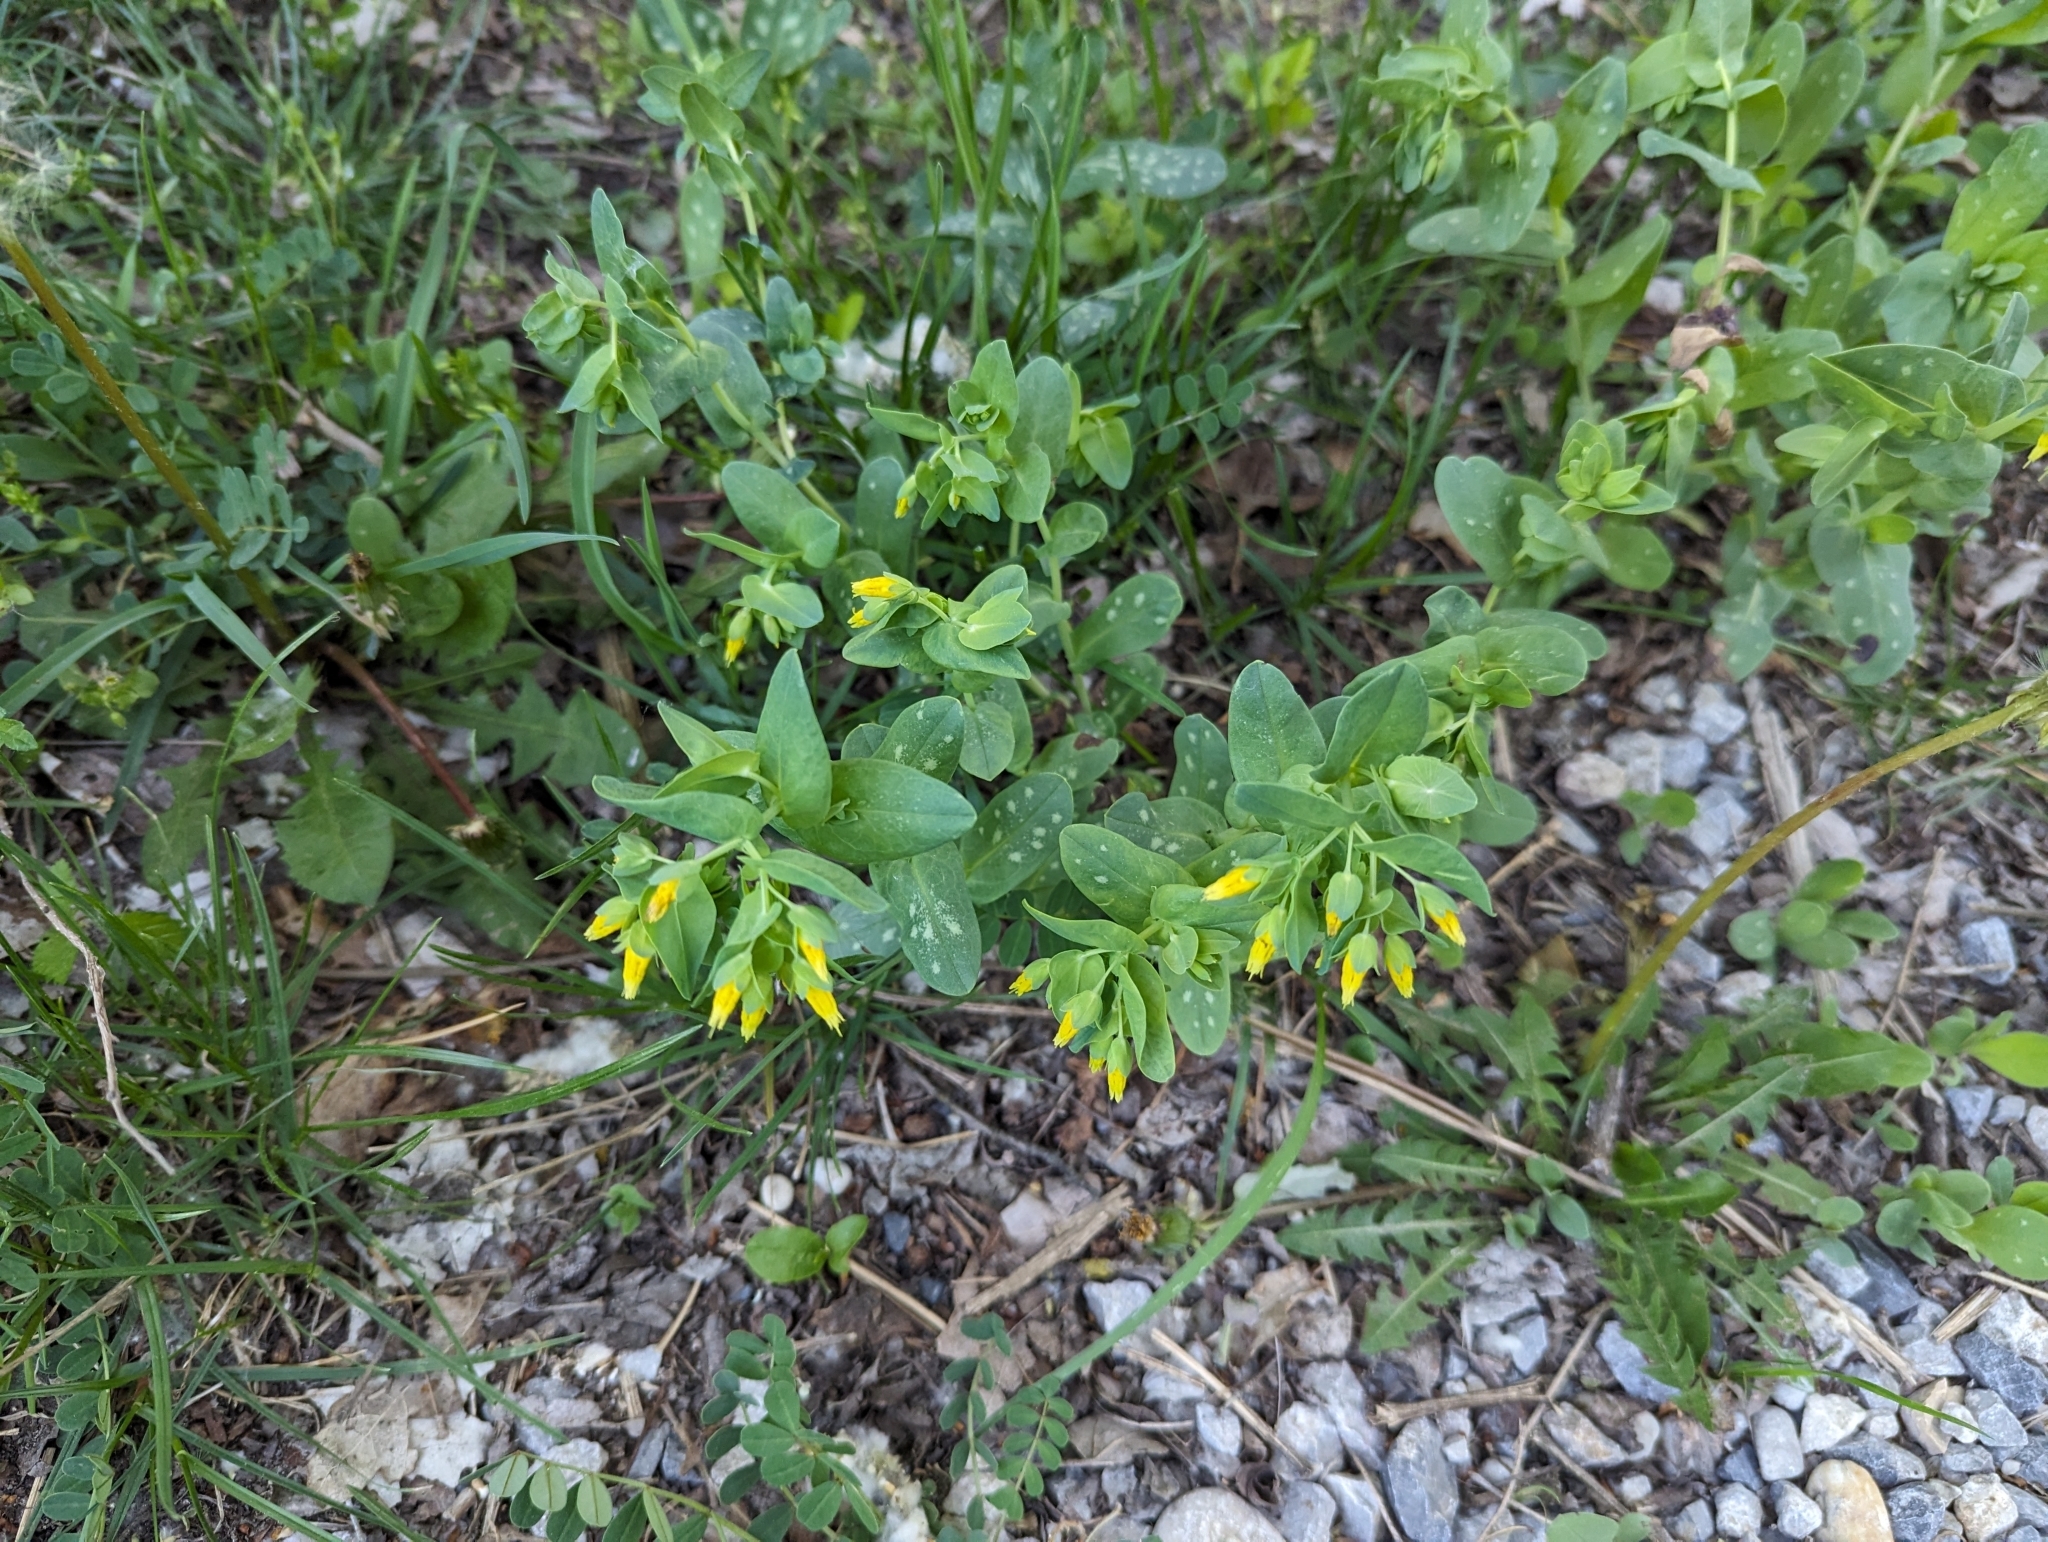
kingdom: Plantae
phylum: Tracheophyta
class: Magnoliopsida
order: Boraginales
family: Boraginaceae
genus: Cerinthe
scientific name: Cerinthe minor
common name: Lesser honeywort
